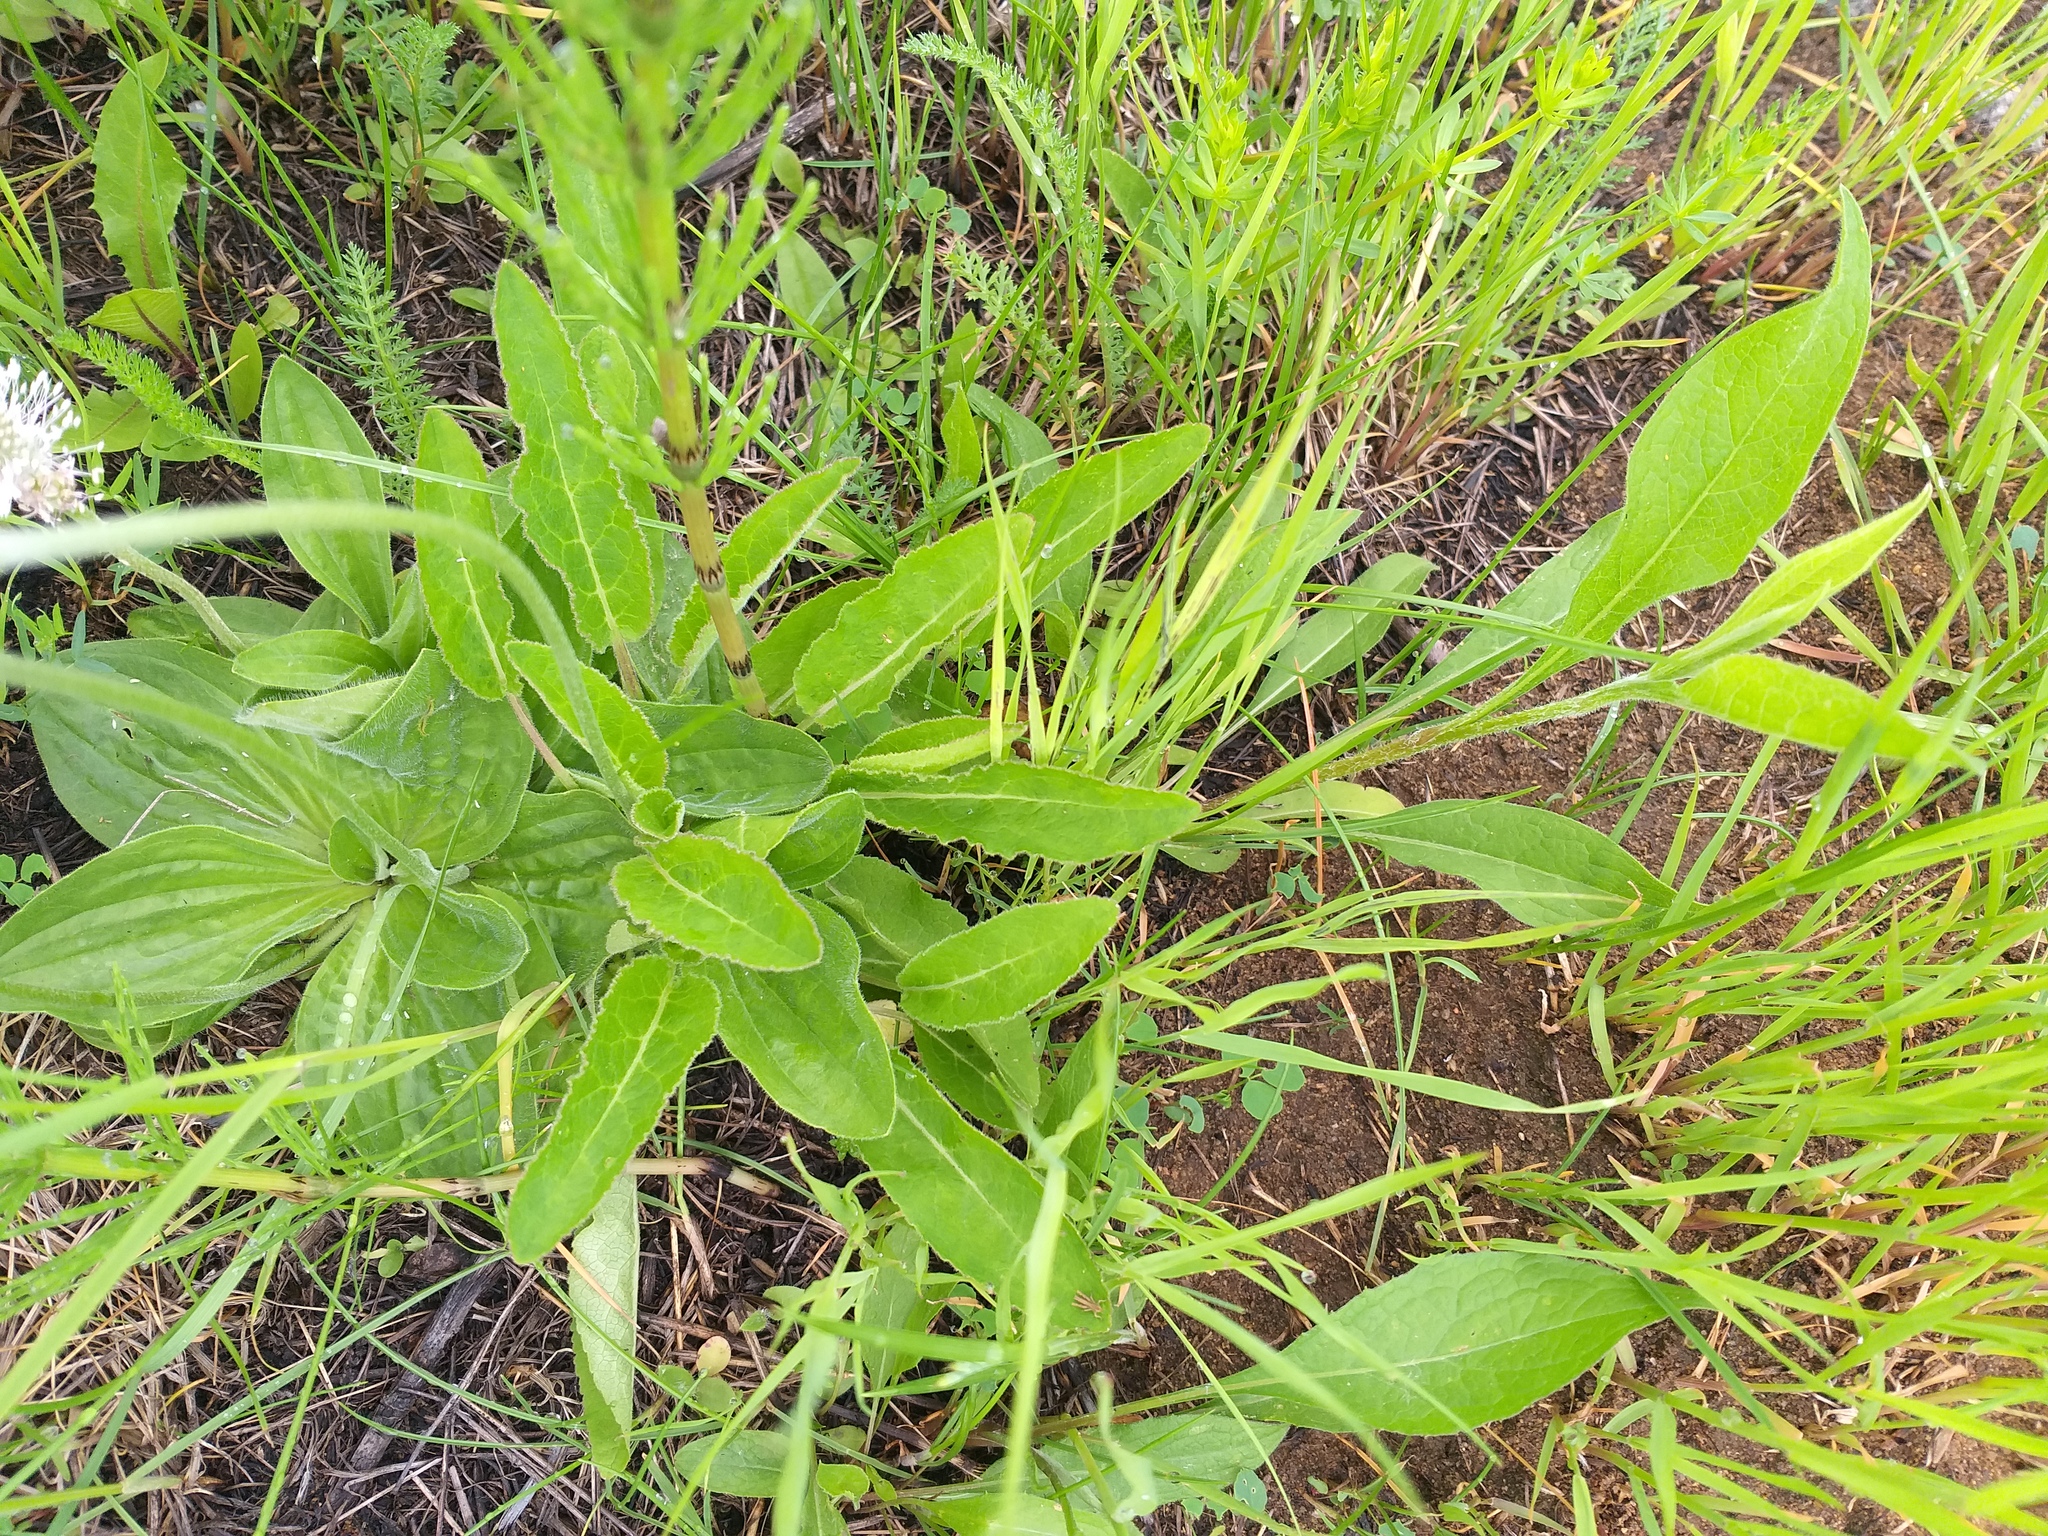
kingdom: Plantae
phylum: Tracheophyta
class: Magnoliopsida
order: Asterales
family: Campanulaceae
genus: Campanula
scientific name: Campanula glomerata
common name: Clustered bellflower
